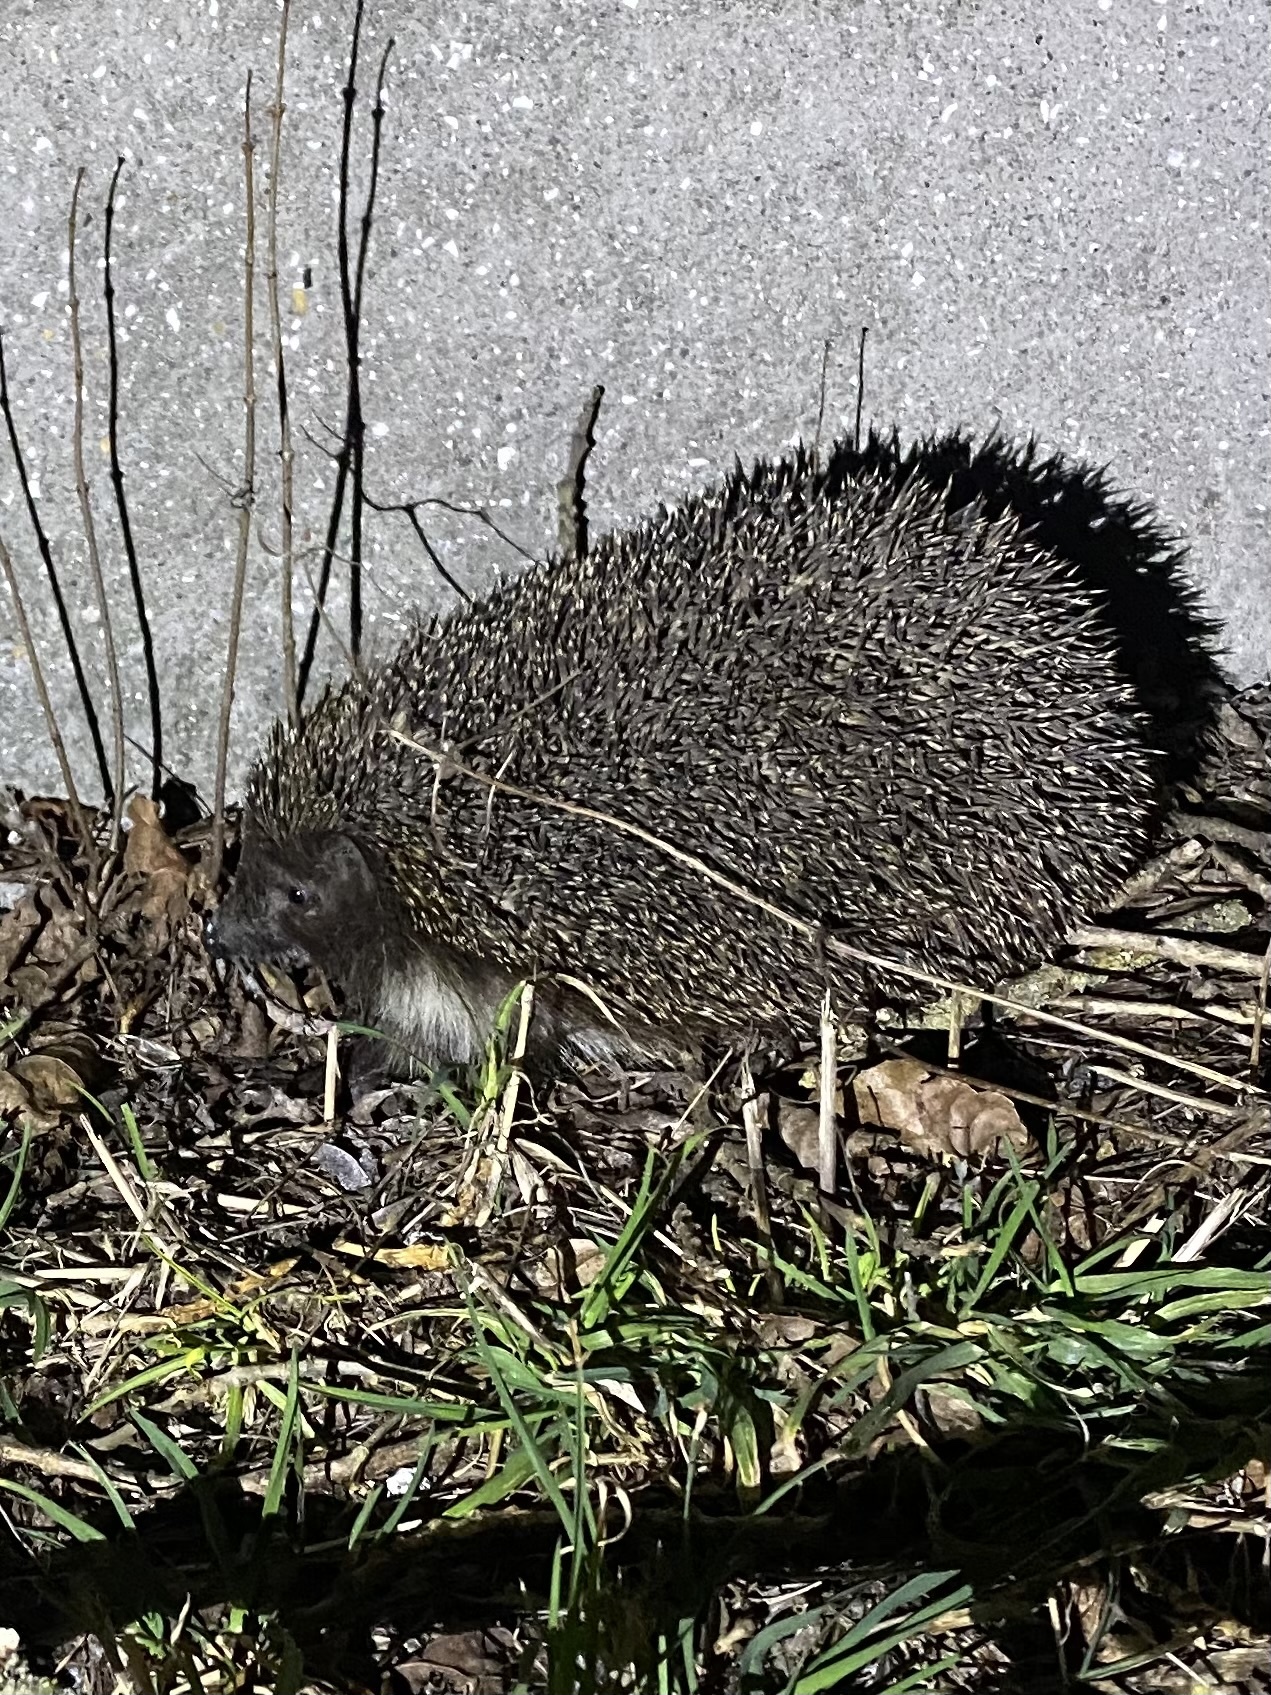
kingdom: Animalia
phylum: Chordata
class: Mammalia
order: Erinaceomorpha
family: Erinaceidae
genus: Erinaceus
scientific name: Erinaceus roumanicus
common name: Northern white-breasted hedgehog
